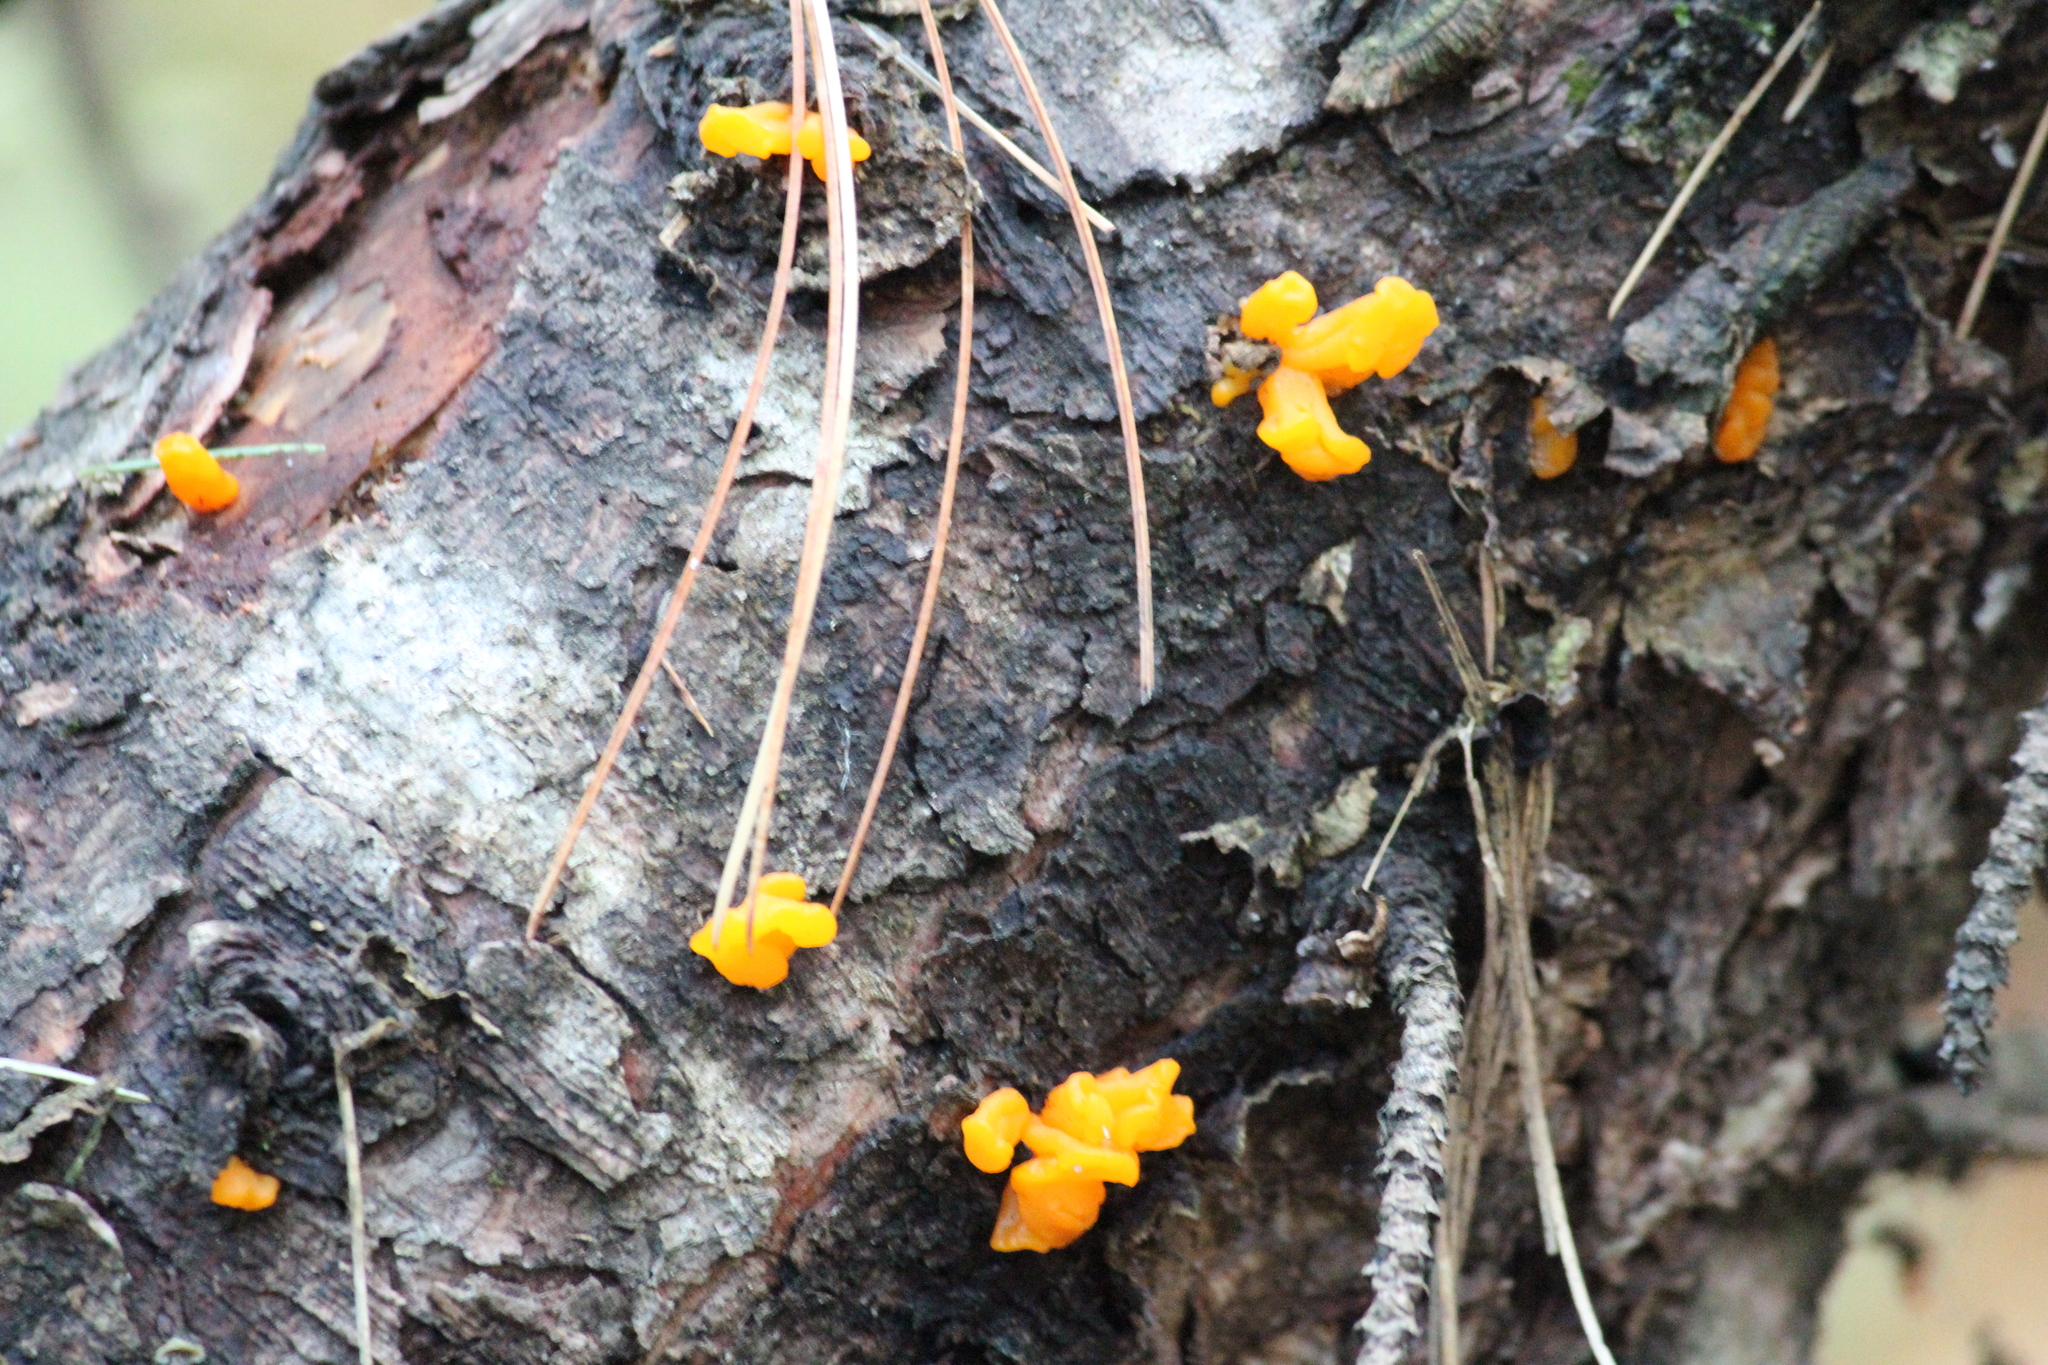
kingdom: Fungi
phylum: Basidiomycota
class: Dacrymycetes
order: Dacrymycetales
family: Dacrymycetaceae
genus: Dacrymyces
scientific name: Dacrymyces chrysospermus
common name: Orange jelly spot
